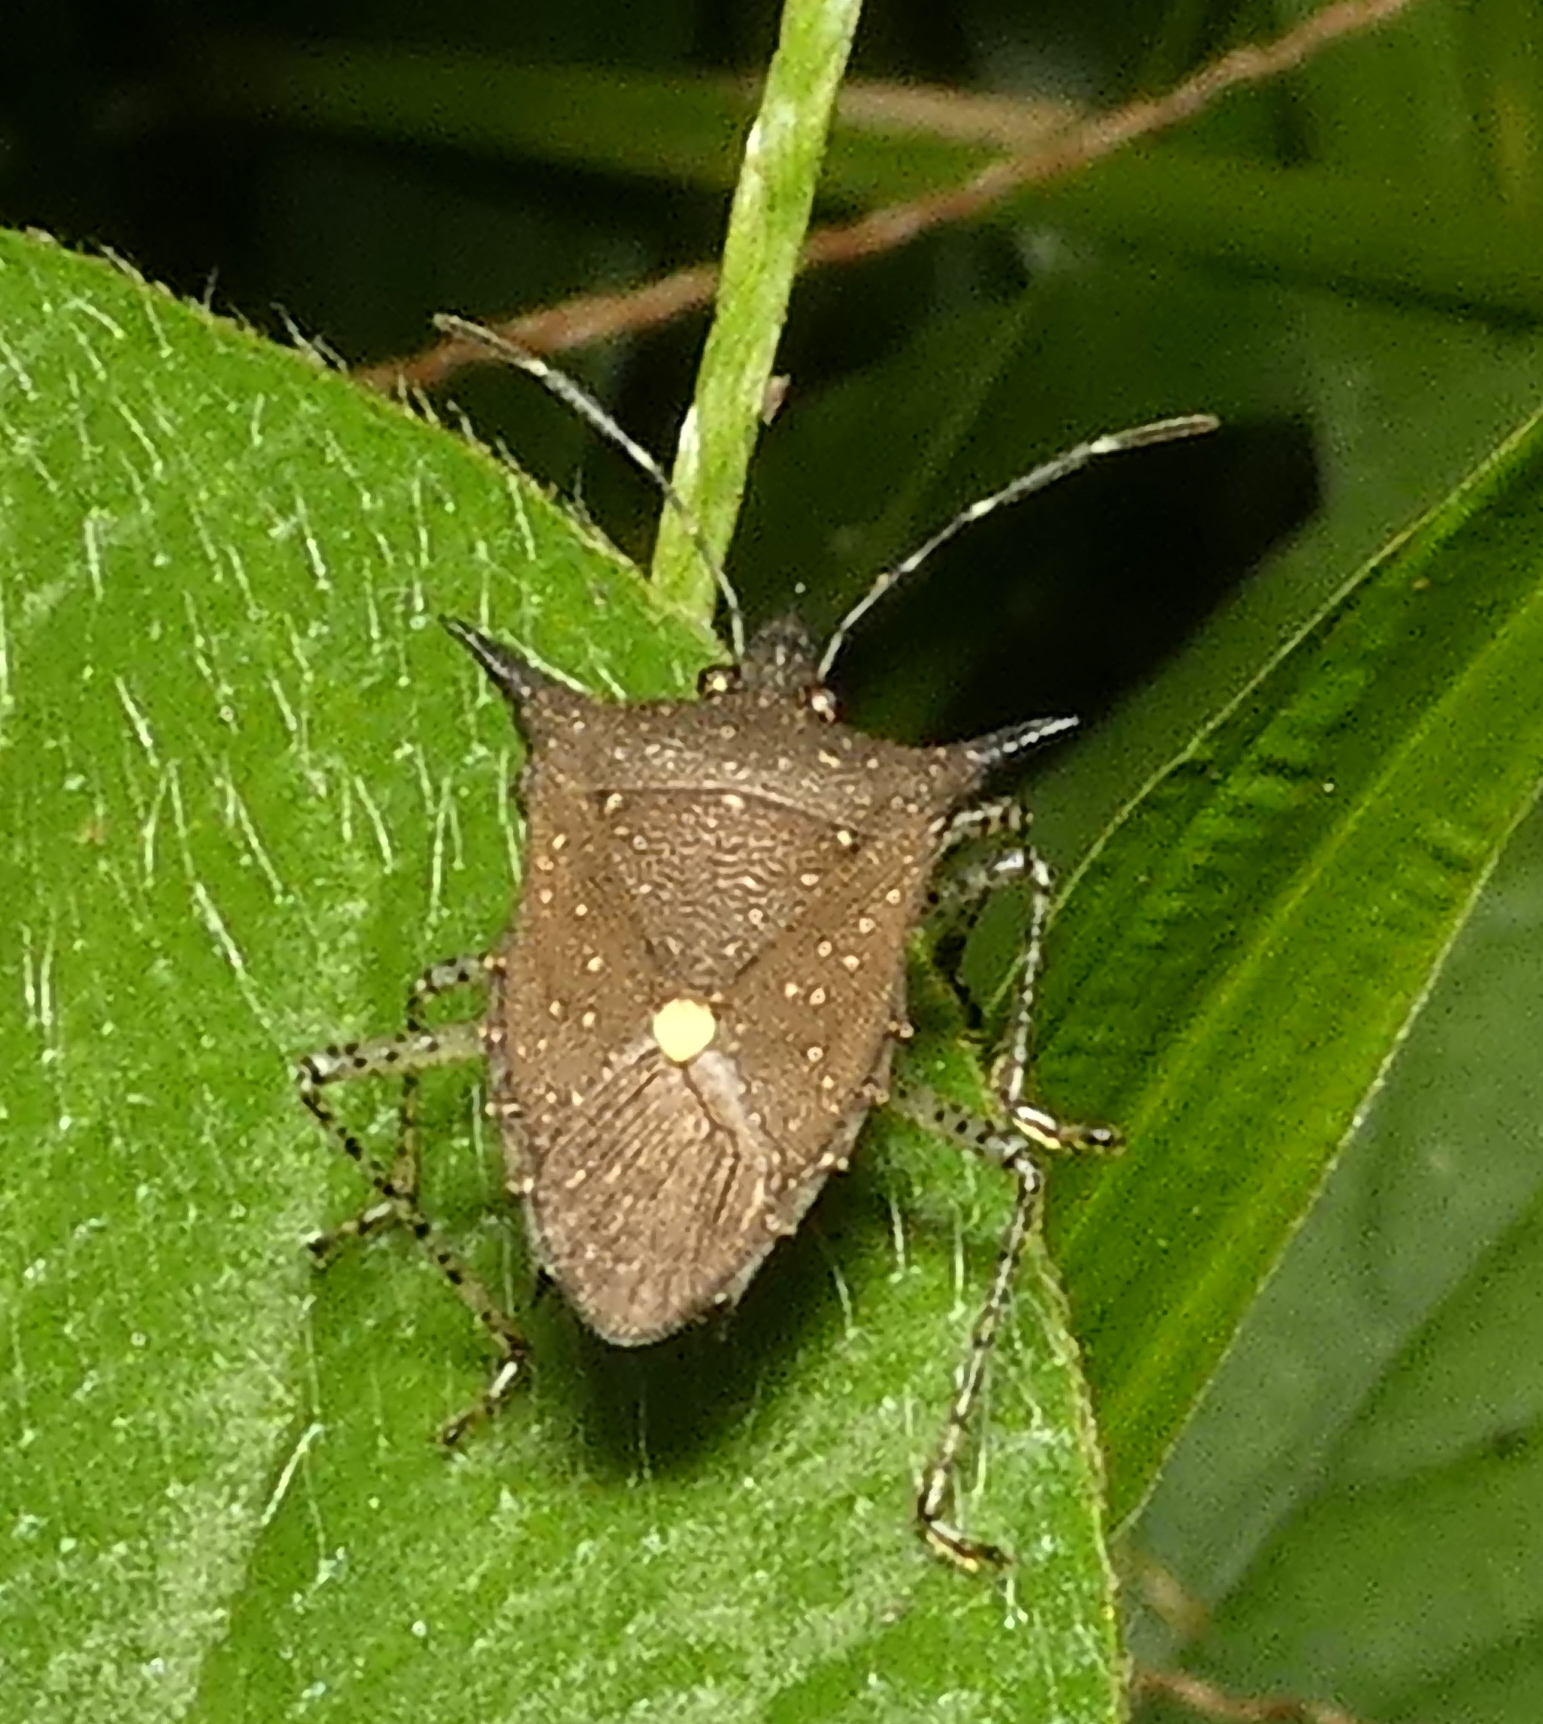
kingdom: Animalia
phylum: Arthropoda
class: Insecta
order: Hemiptera
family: Pentatomidae
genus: Proxys
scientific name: Proxys albopunctulatus
